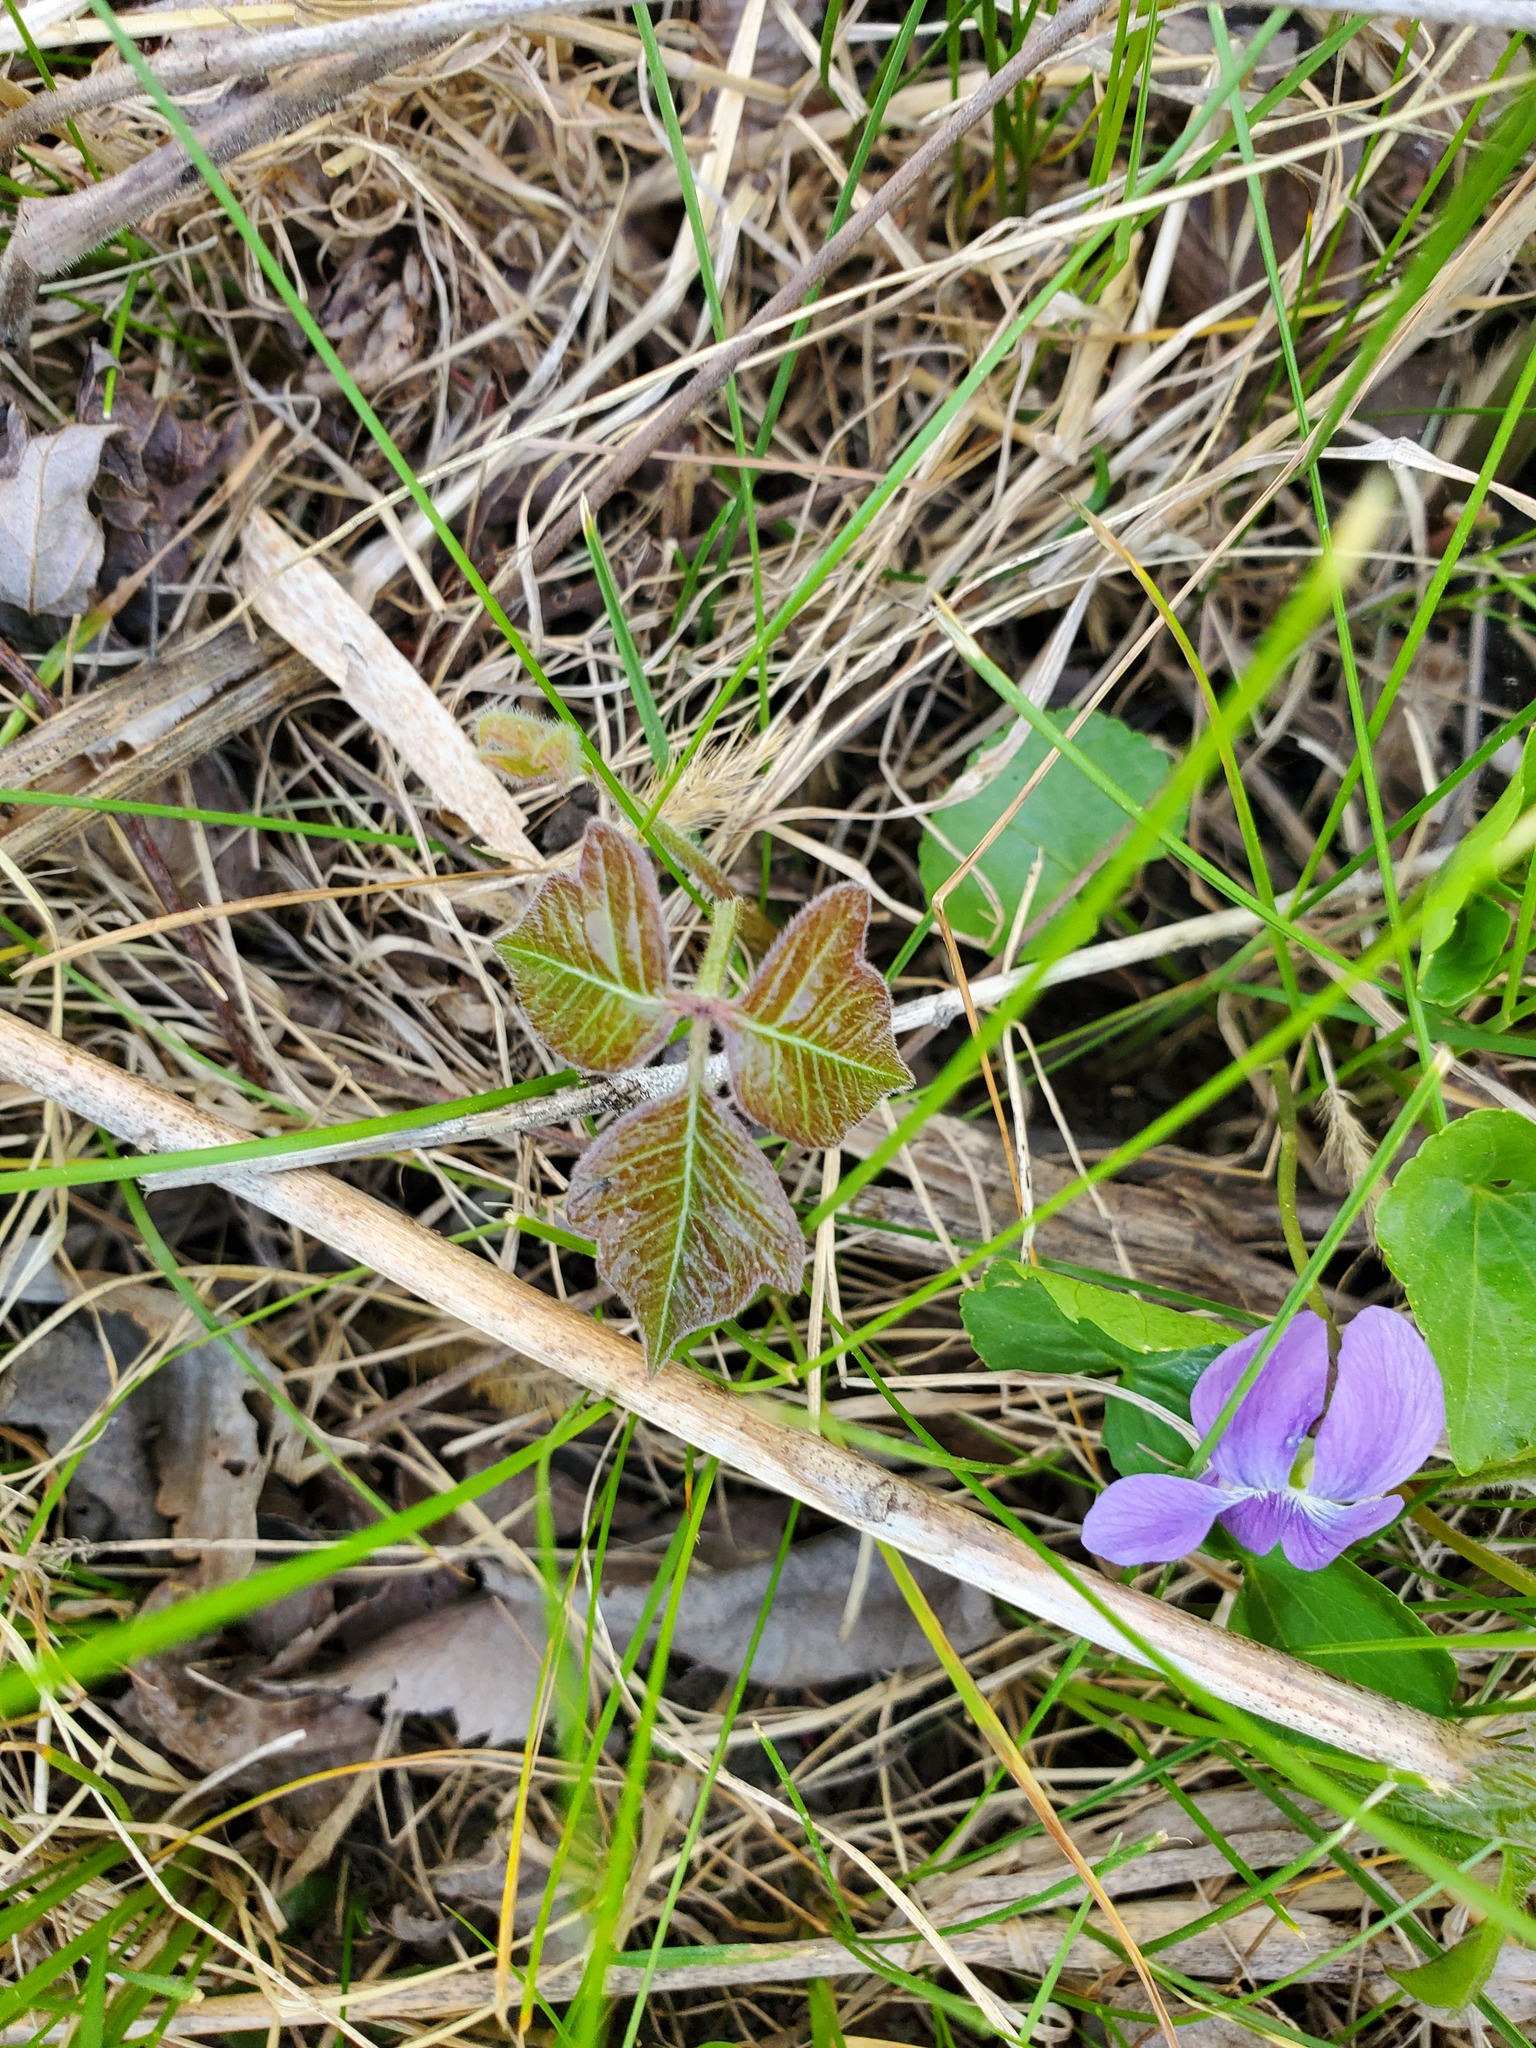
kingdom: Plantae
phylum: Tracheophyta
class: Magnoliopsida
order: Sapindales
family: Anacardiaceae
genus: Toxicodendron
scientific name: Toxicodendron radicans
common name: Poison ivy
